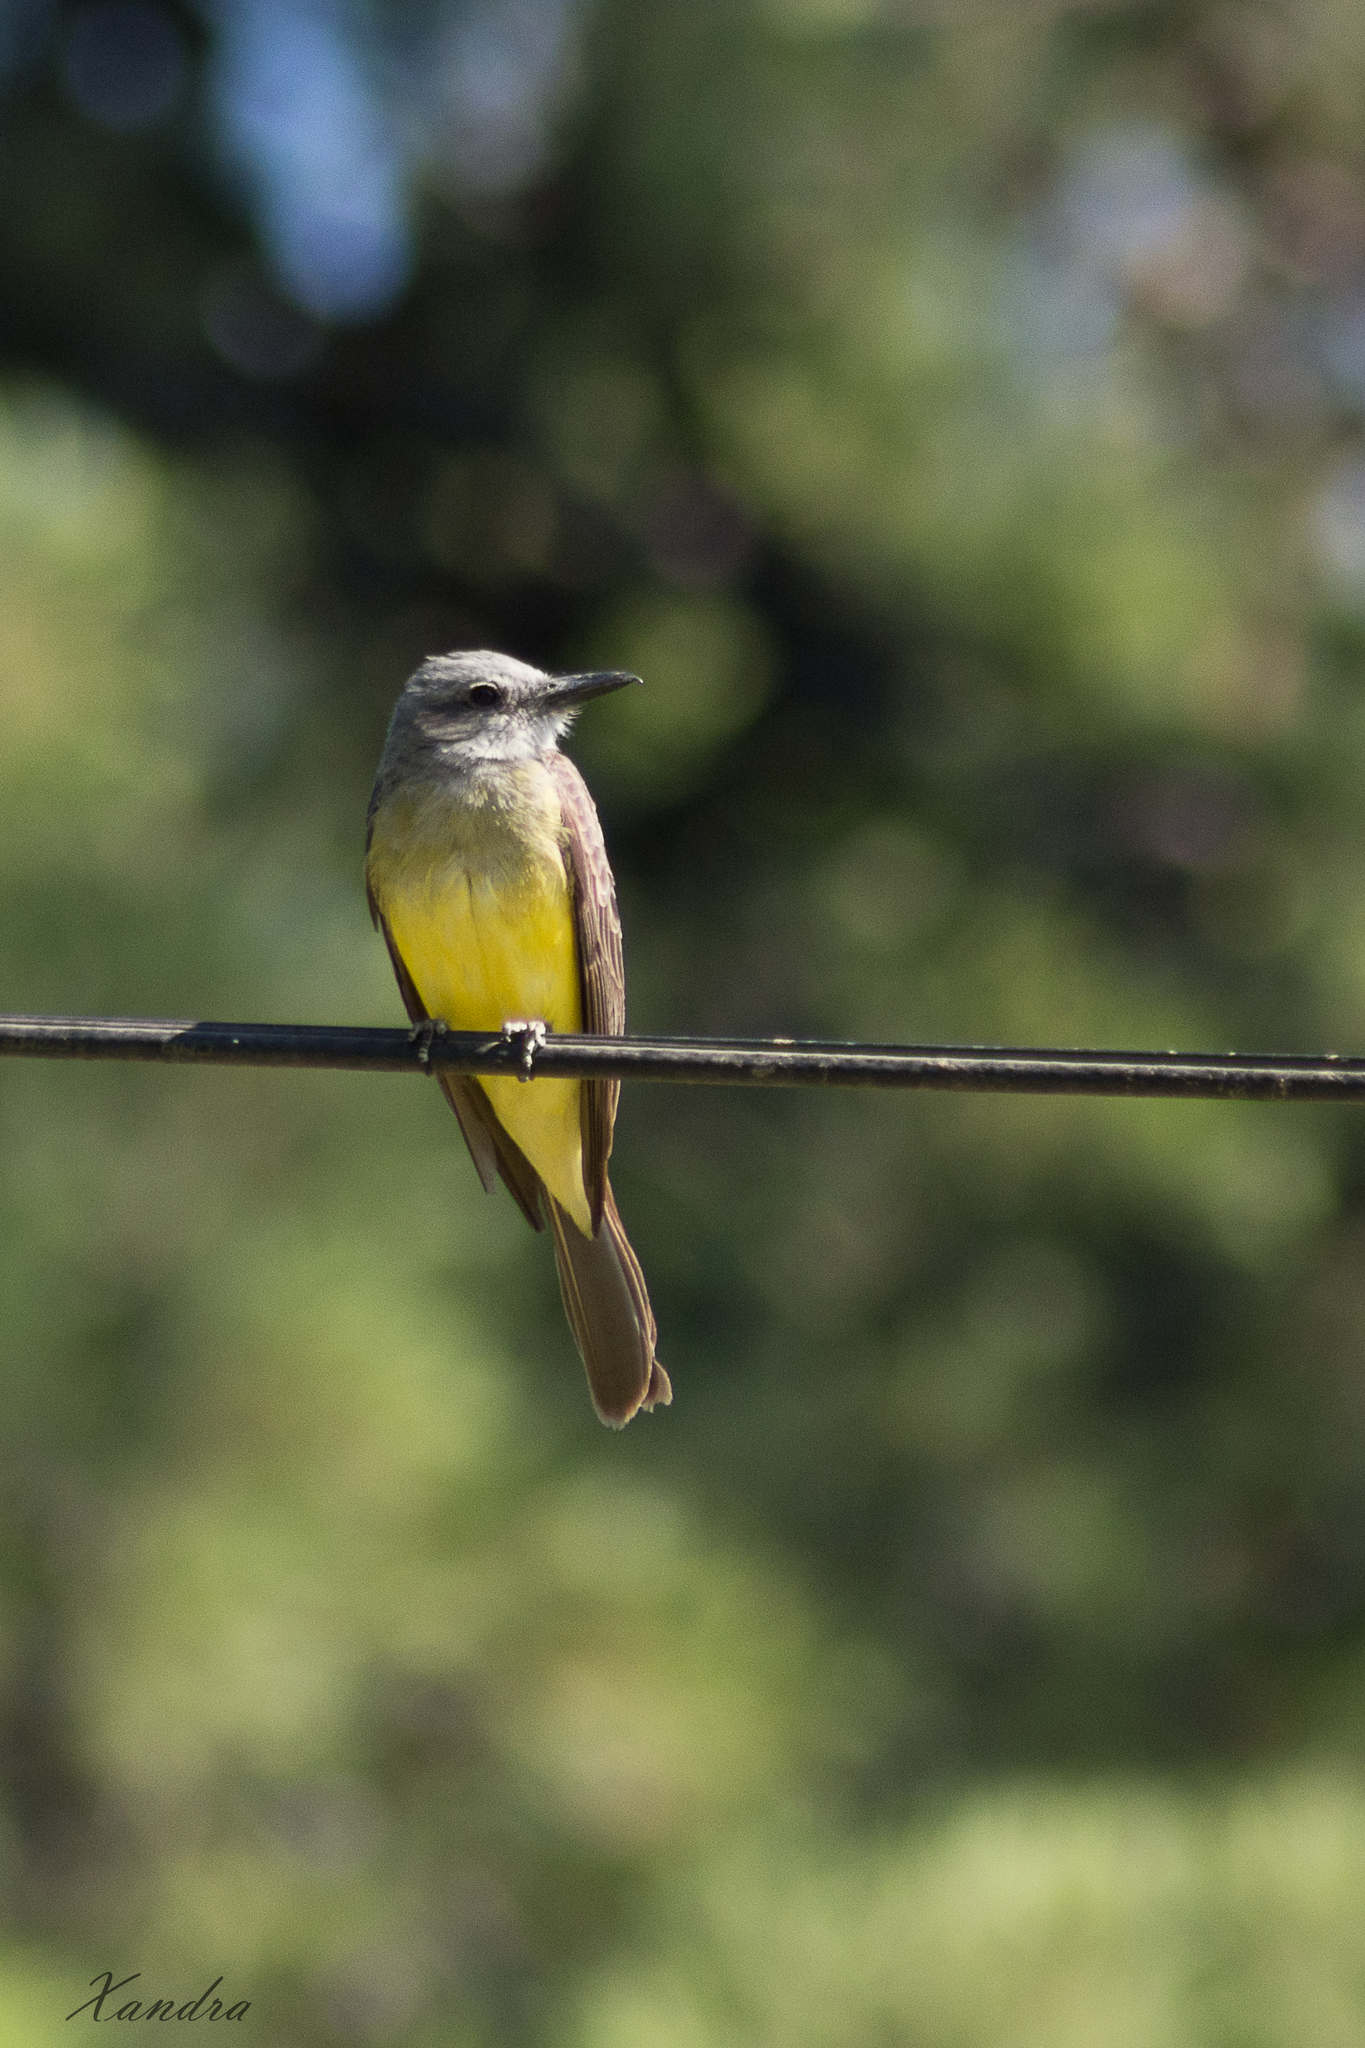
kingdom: Animalia
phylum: Chordata
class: Aves
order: Passeriformes
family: Tyrannidae
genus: Tyrannus
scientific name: Tyrannus melancholicus
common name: Tropical kingbird
